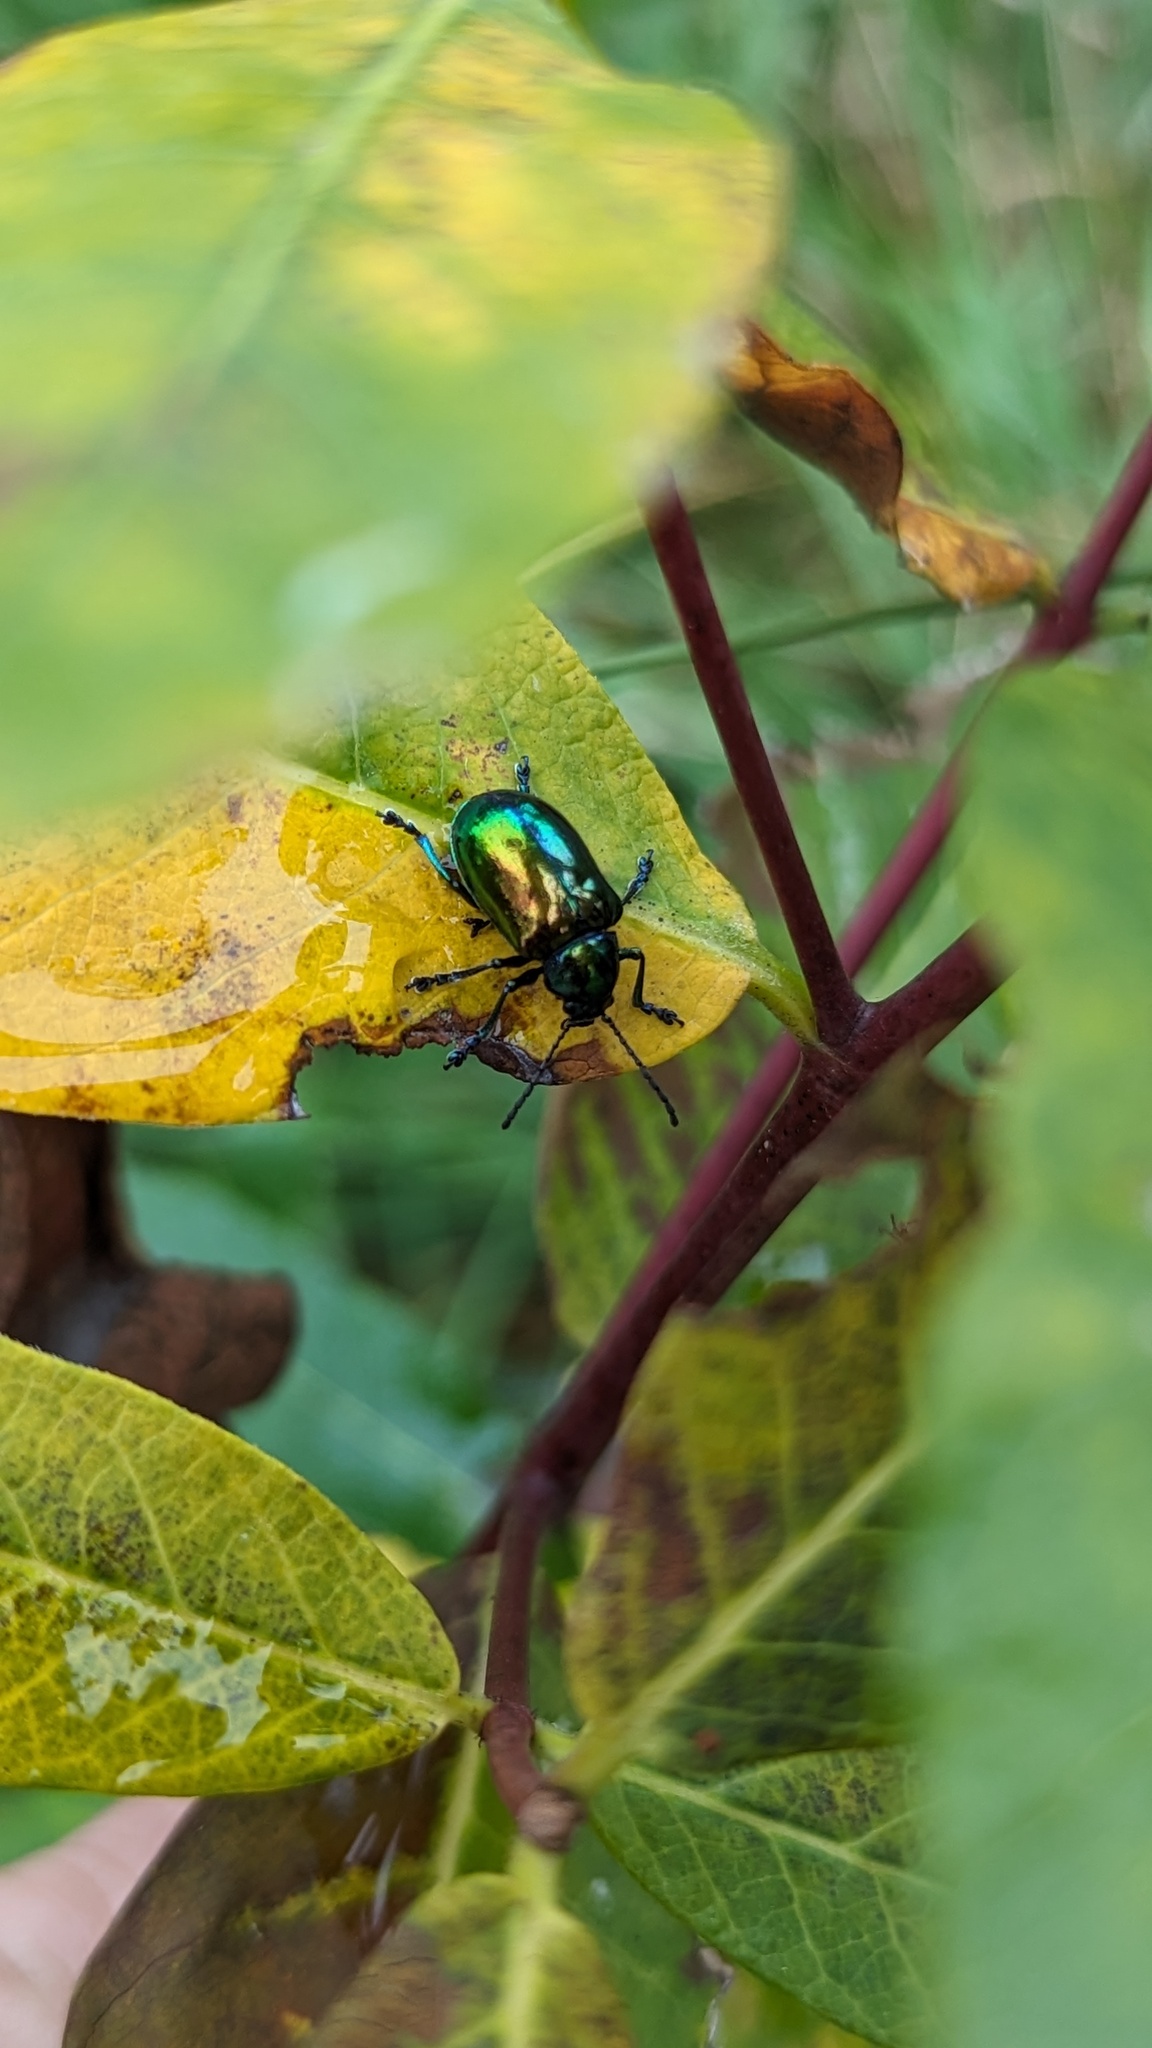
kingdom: Animalia
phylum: Arthropoda
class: Insecta
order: Coleoptera
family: Chrysomelidae
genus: Chrysochus
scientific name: Chrysochus auratus
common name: Dogbane leaf beetle
